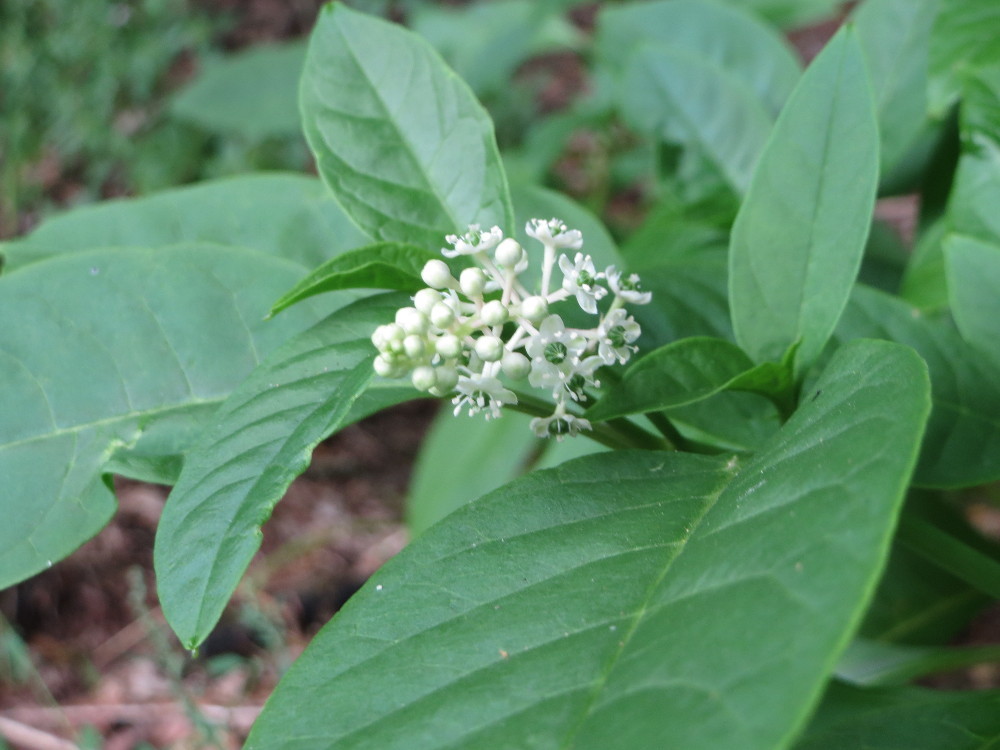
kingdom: Plantae
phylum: Tracheophyta
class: Magnoliopsida
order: Caryophyllales
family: Phytolaccaceae
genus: Phytolacca
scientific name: Phytolacca americana
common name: American pokeweed
